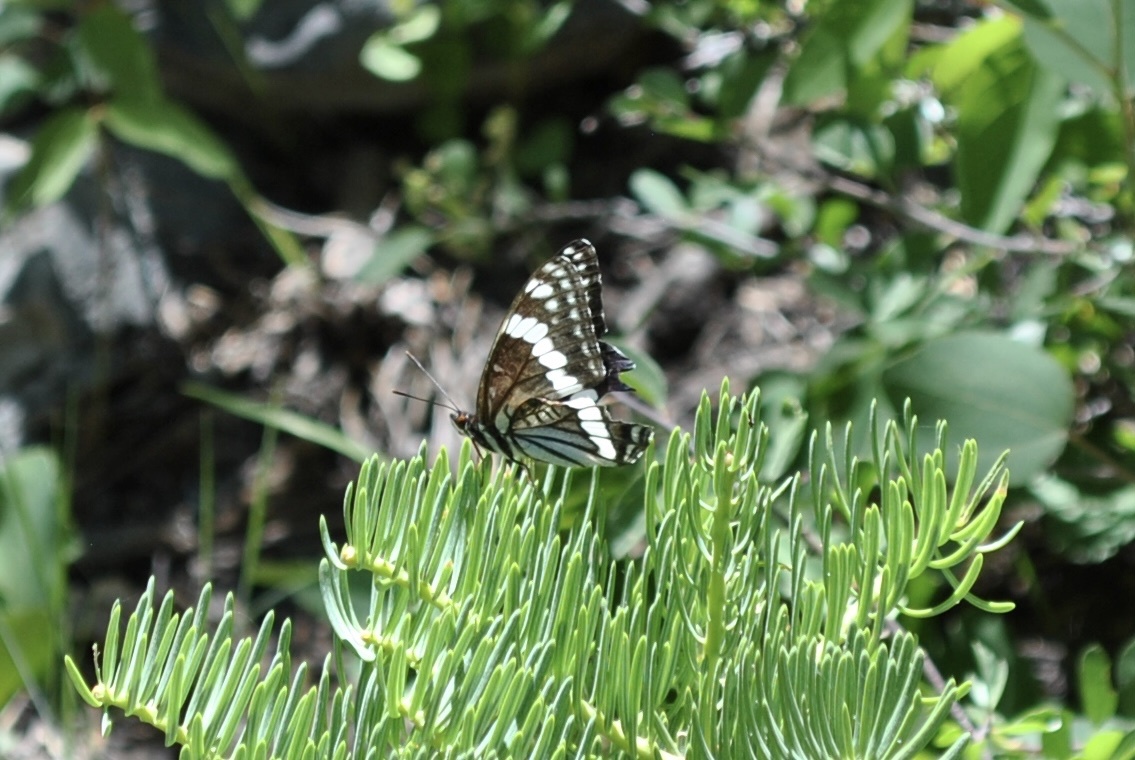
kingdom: Animalia
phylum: Arthropoda
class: Insecta
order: Lepidoptera
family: Nymphalidae
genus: Limenitis
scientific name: Limenitis weidemeyerii
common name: Weidemeyer's admiral
